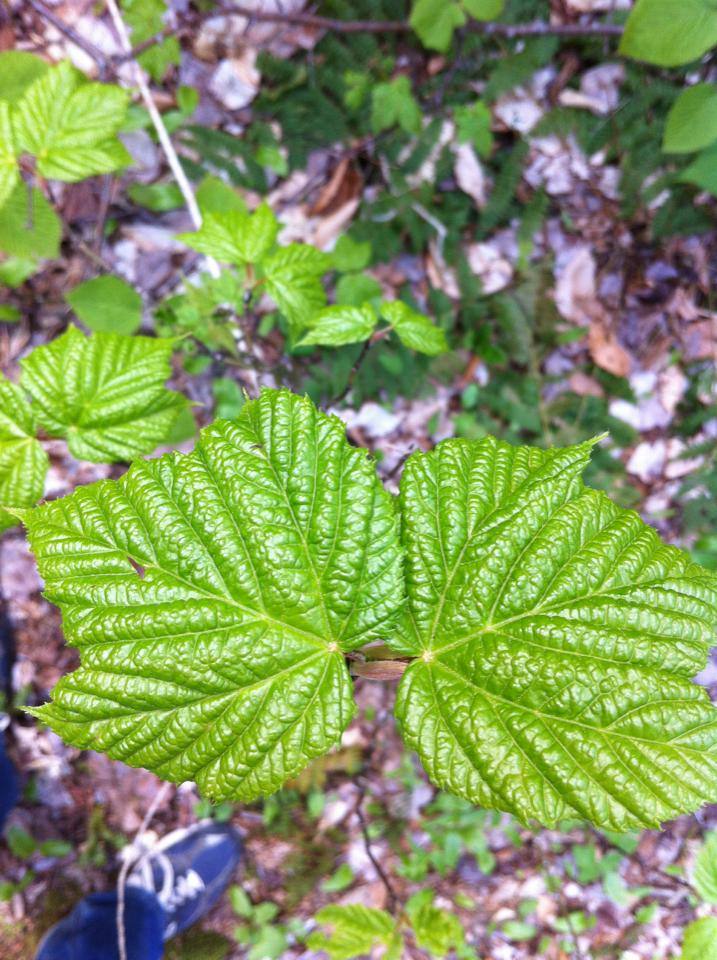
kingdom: Plantae
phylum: Tracheophyta
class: Magnoliopsida
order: Sapindales
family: Sapindaceae
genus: Acer
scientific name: Acer pensylvanicum
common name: Moosewood
